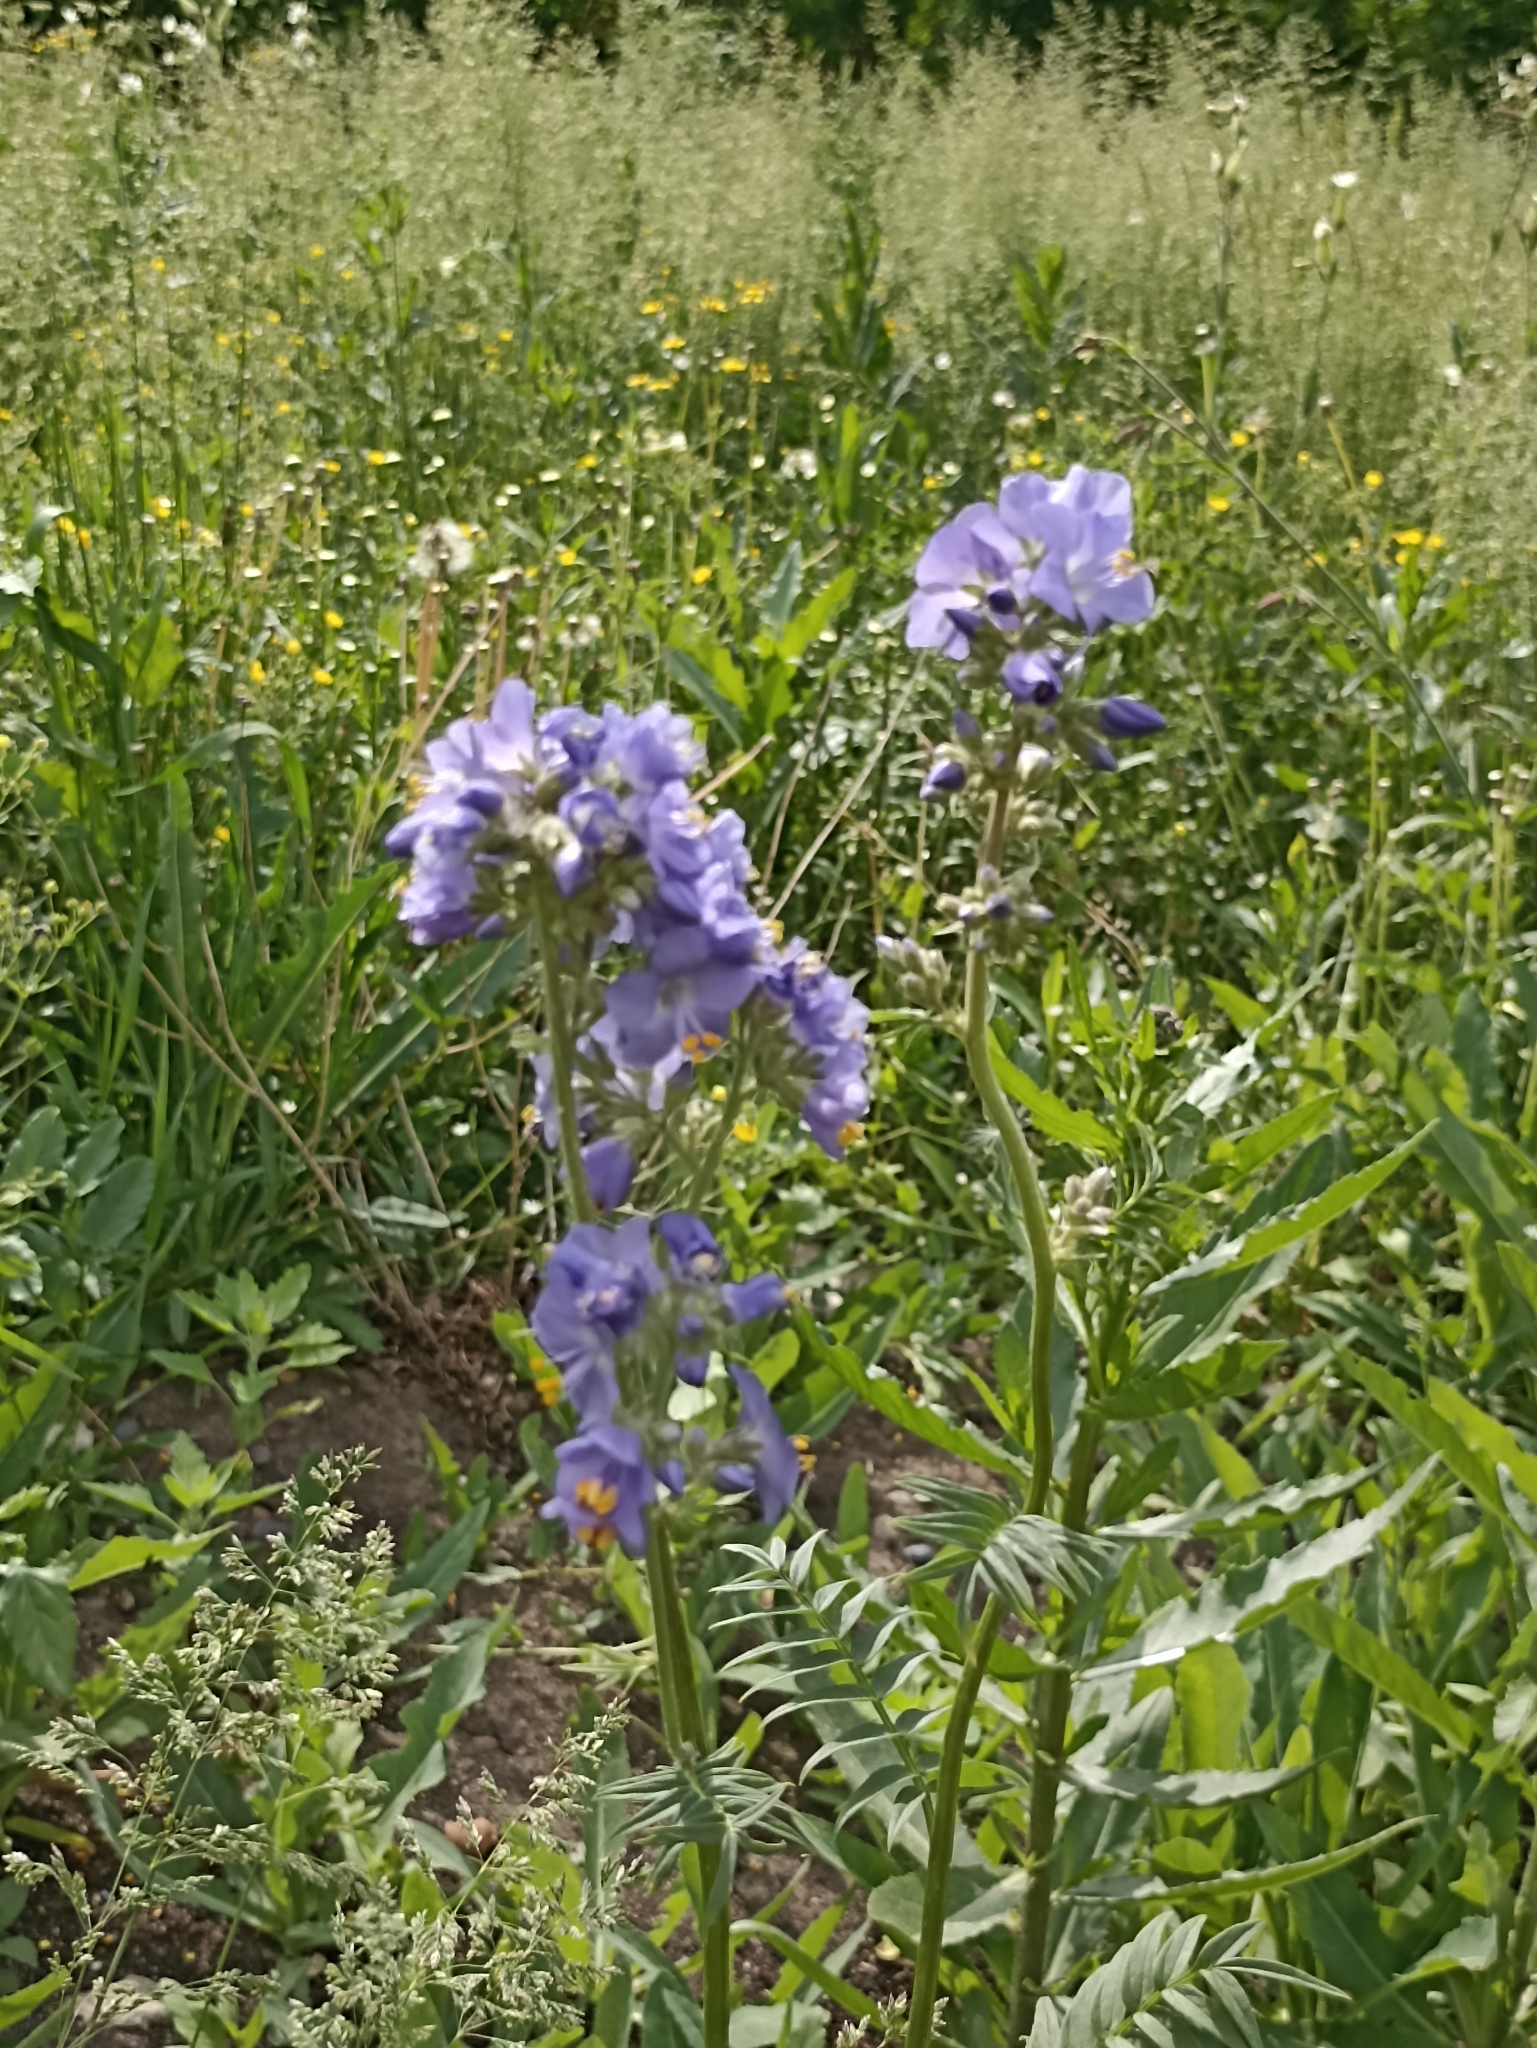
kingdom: Plantae
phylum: Tracheophyta
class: Magnoliopsida
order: Ericales
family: Polemoniaceae
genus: Polemonium
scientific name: Polemonium caeruleum
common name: Jacob's-ladder
